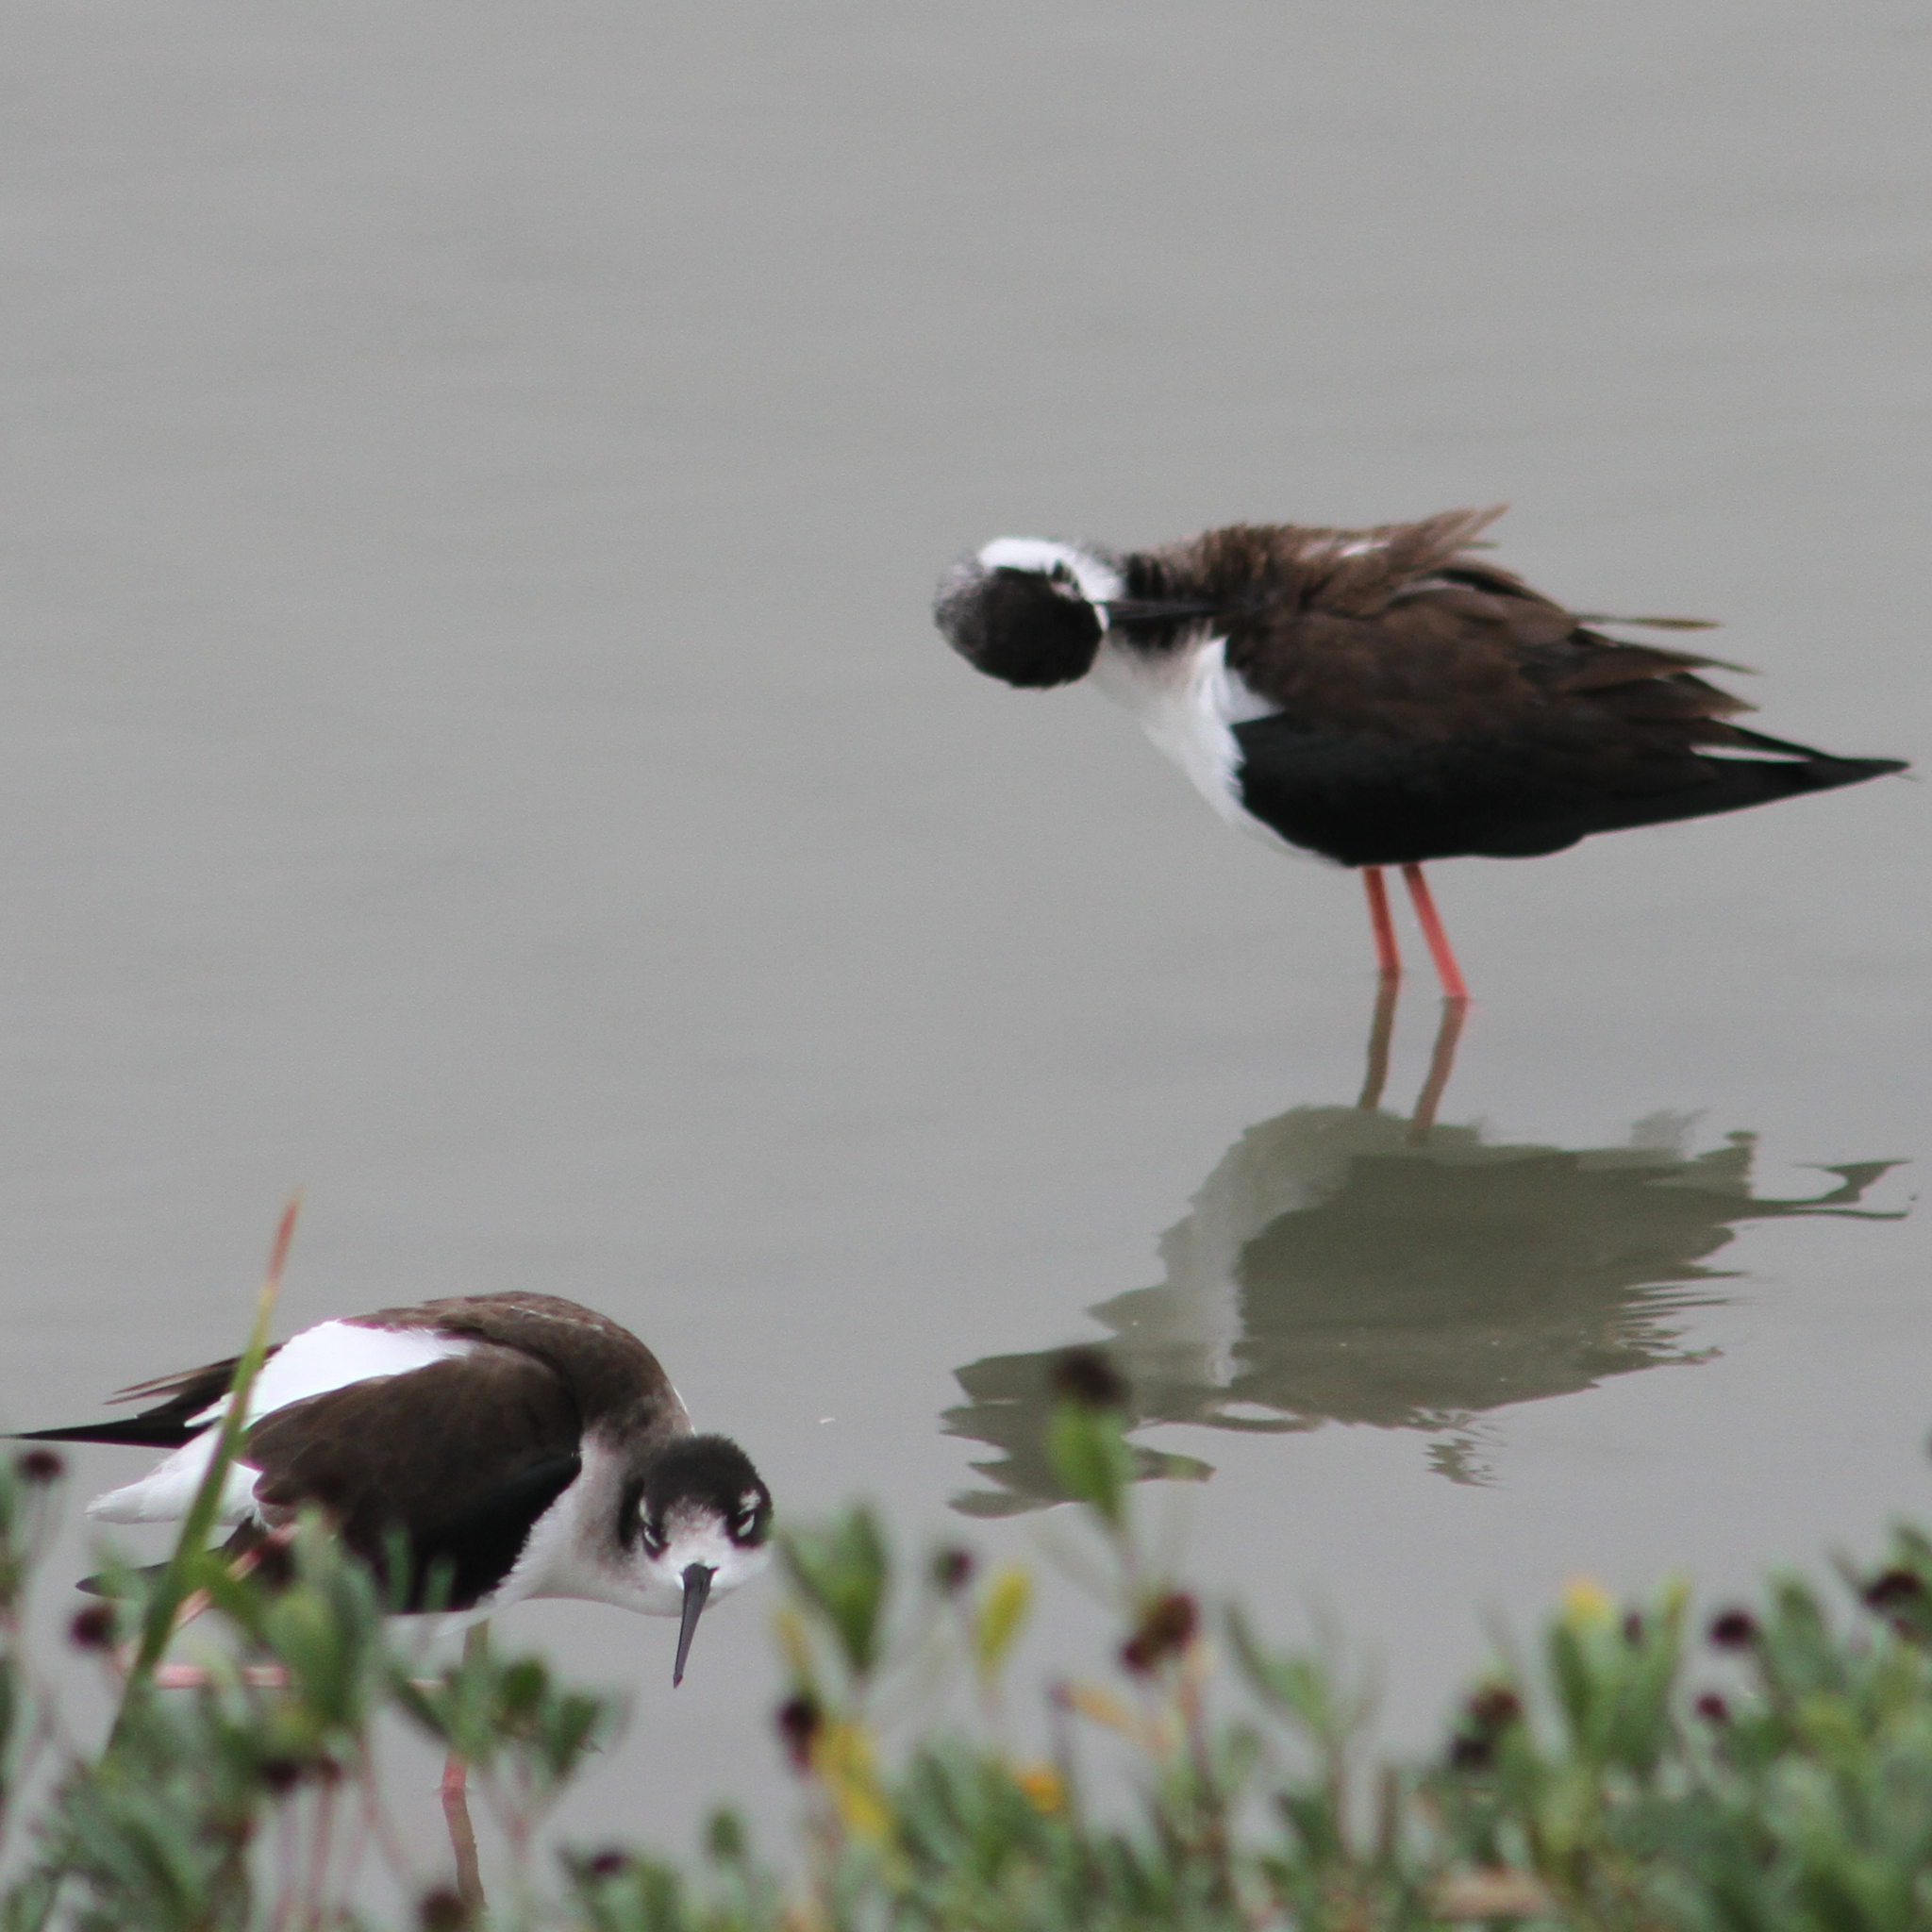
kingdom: Animalia
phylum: Chordata
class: Aves
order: Charadriiformes
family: Recurvirostridae
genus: Himantopus
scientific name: Himantopus mexicanus
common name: Black-necked stilt
